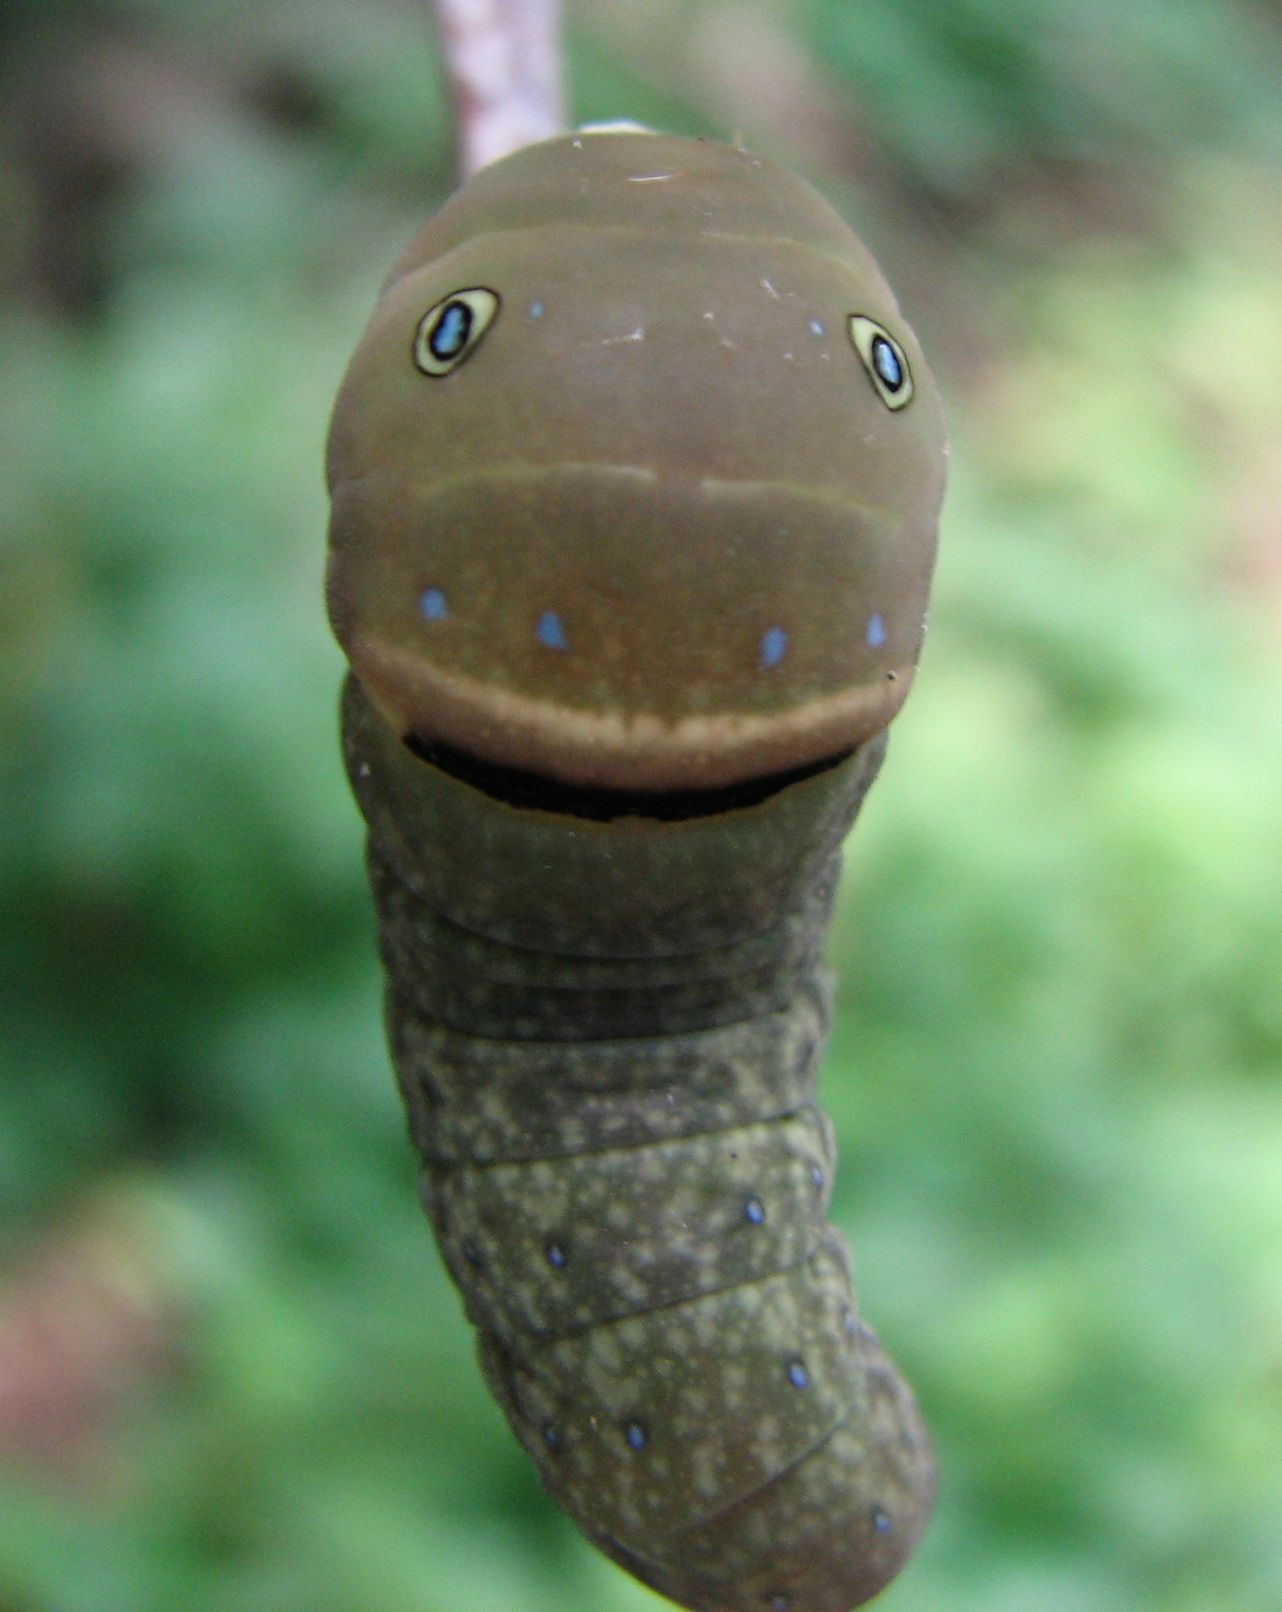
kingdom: Animalia
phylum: Arthropoda
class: Insecta
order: Lepidoptera
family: Papilionidae
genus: Papilio
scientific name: Papilio glaucus
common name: Tiger swallowtail
